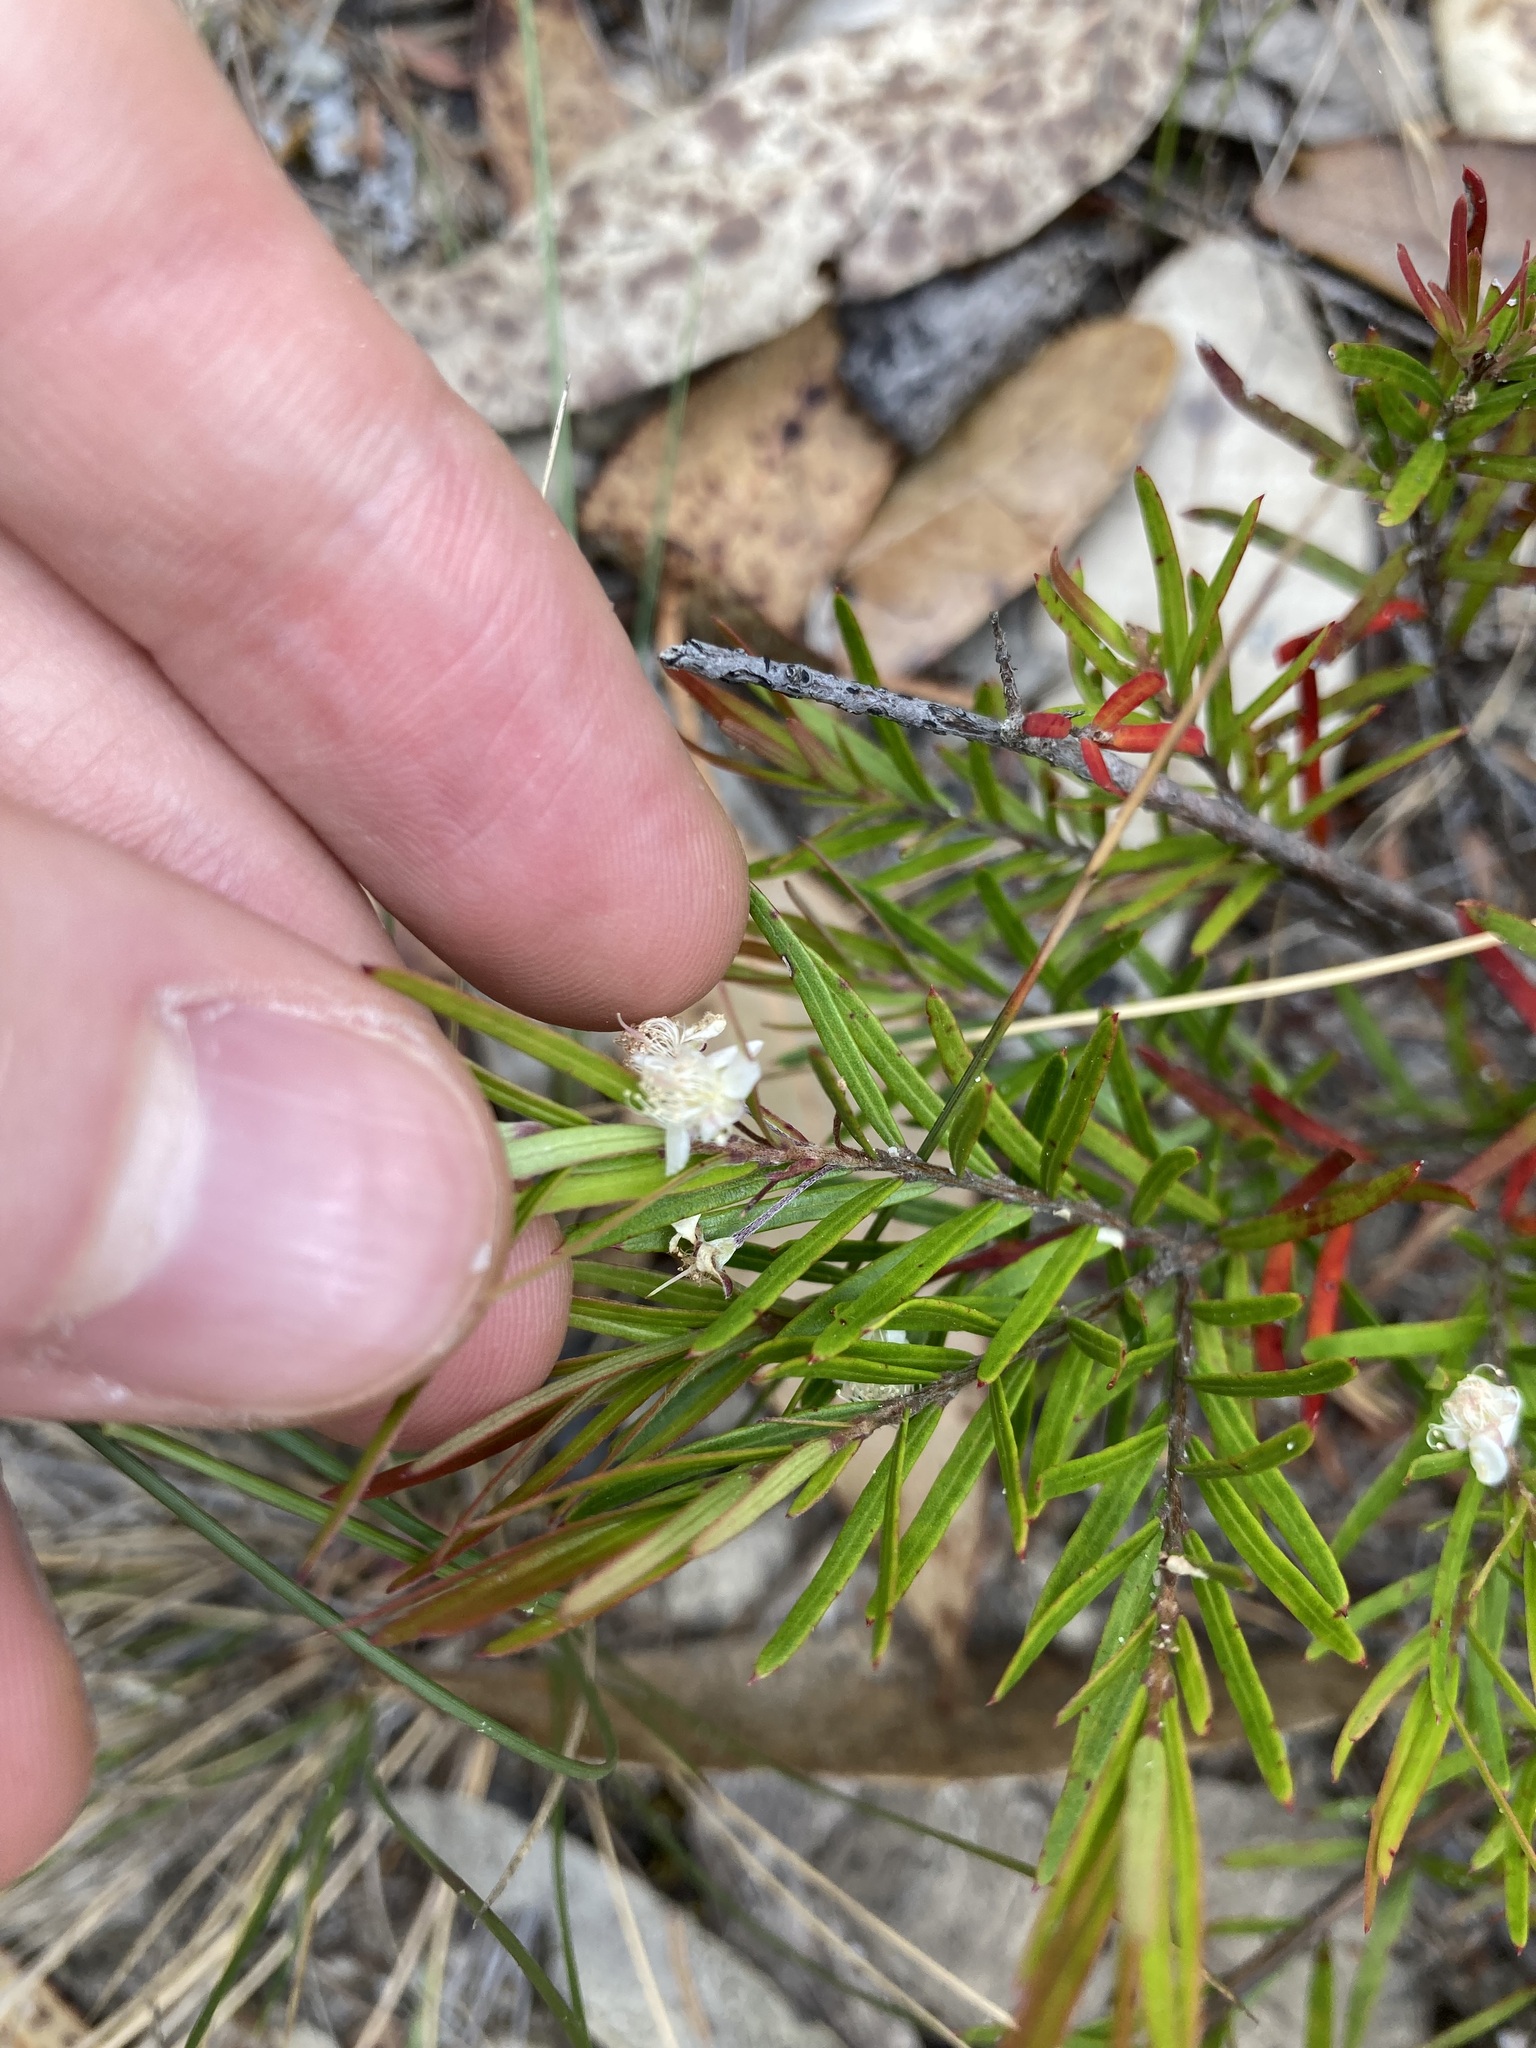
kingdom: Plantae
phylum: Tracheophyta
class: Magnoliopsida
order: Myrtales
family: Myrtaceae
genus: Austromyrtus
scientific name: Austromyrtus tenuifolia
